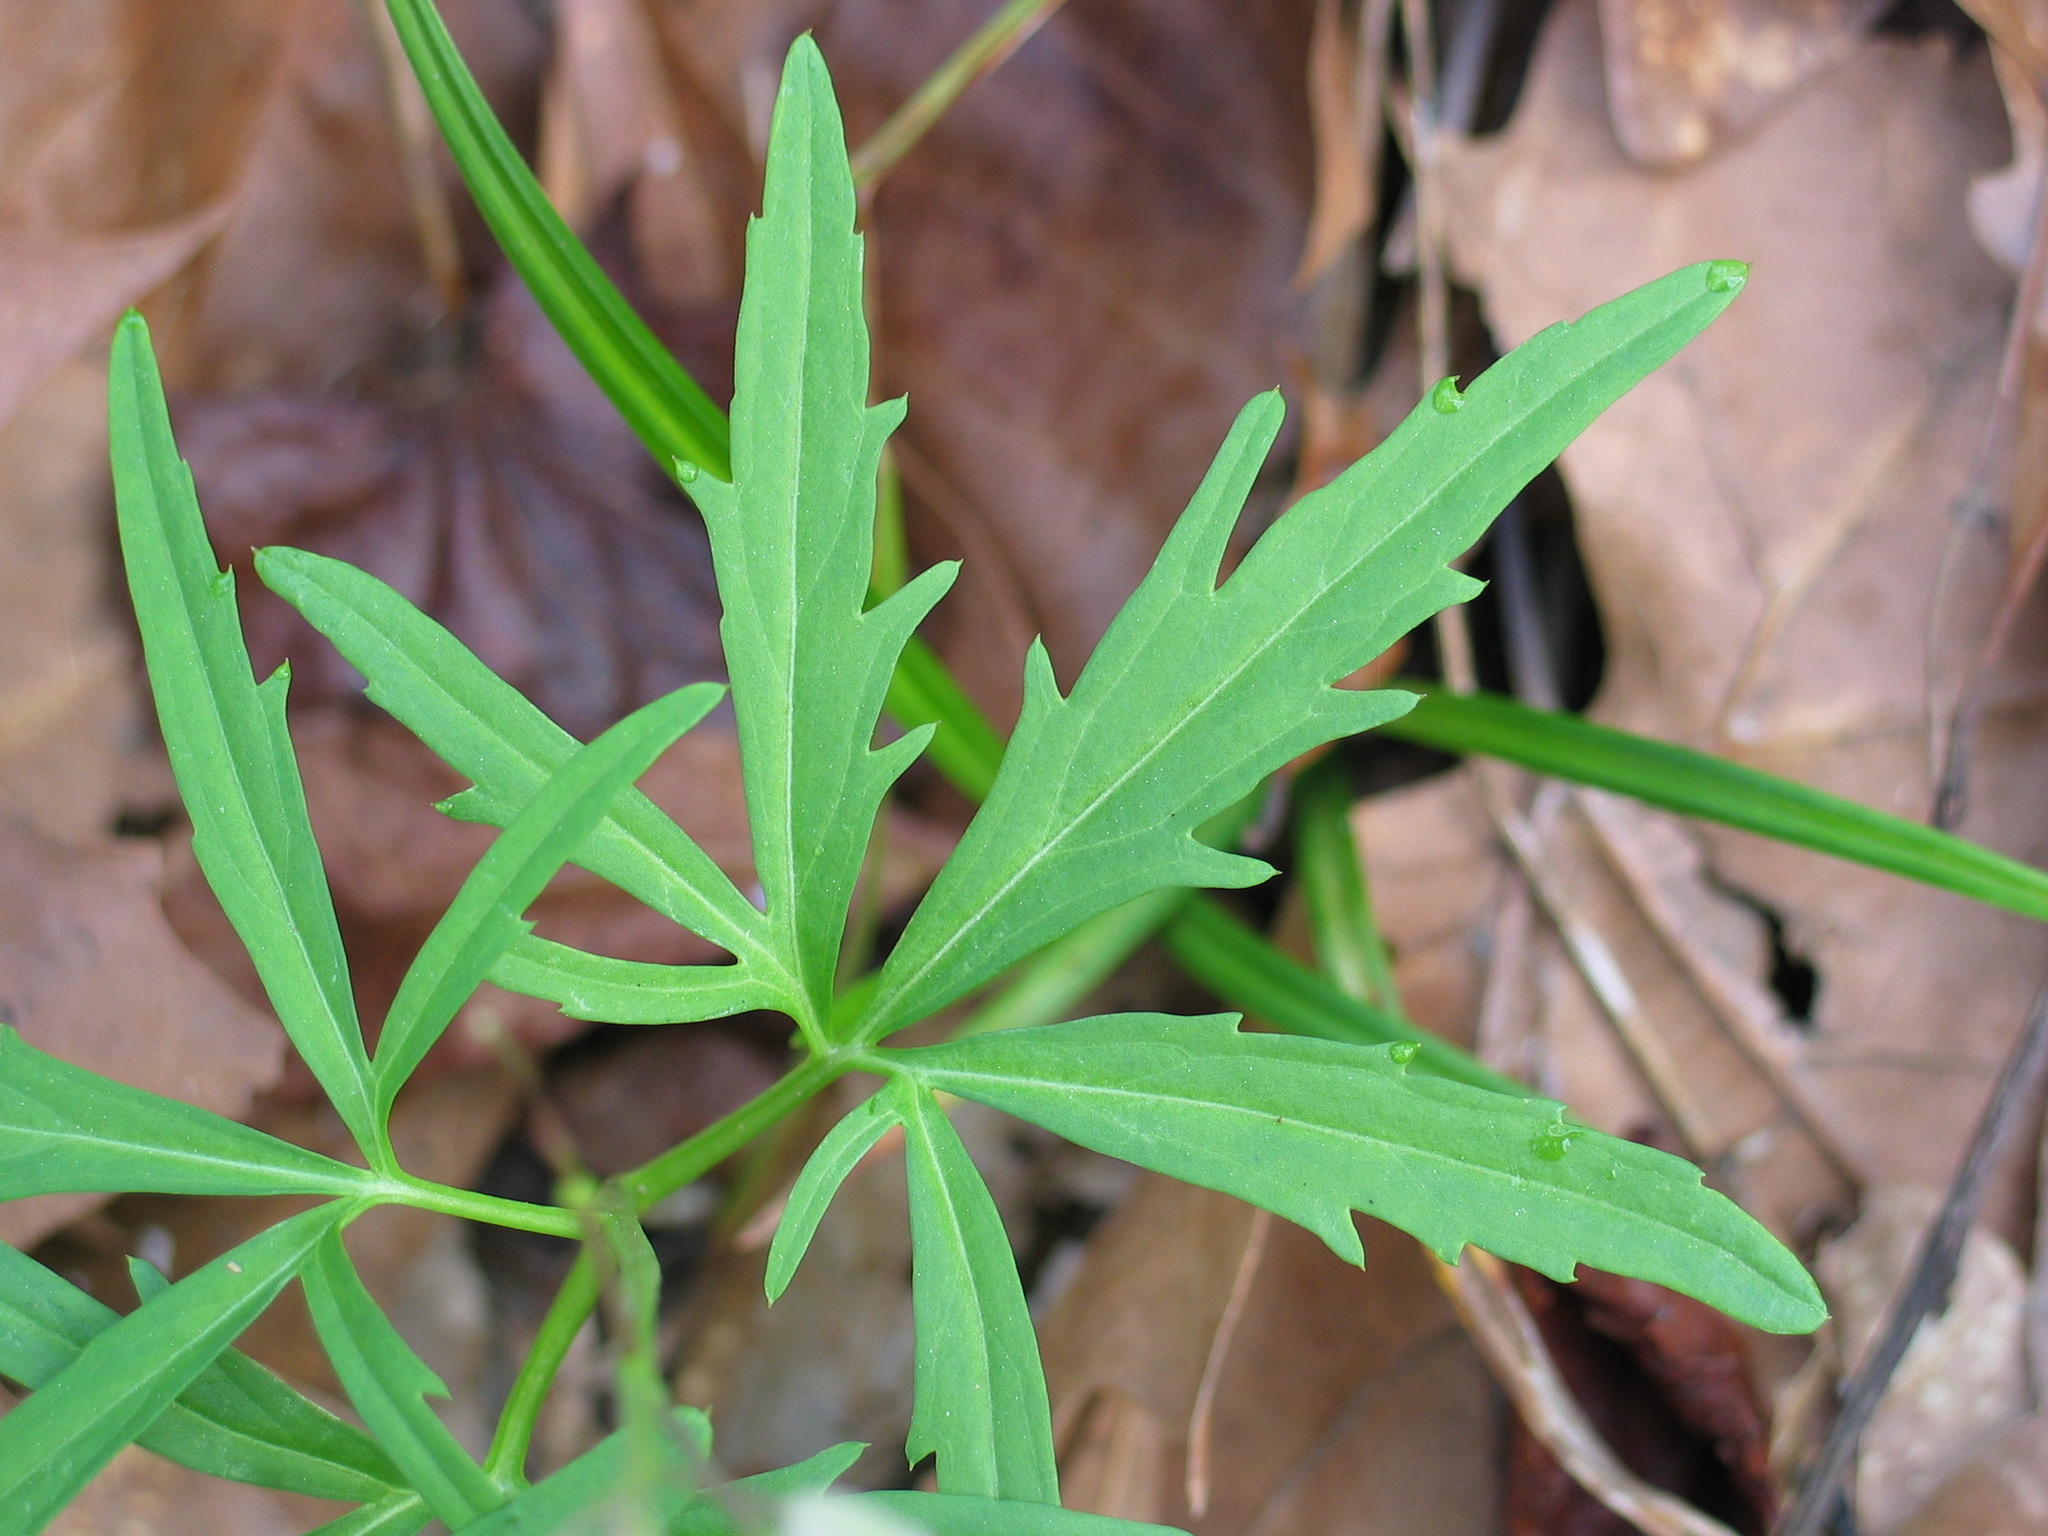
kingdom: Plantae
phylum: Tracheophyta
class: Magnoliopsida
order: Brassicales
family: Brassicaceae
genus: Cardamine
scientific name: Cardamine concatenata
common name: Cut-leaf toothcup
